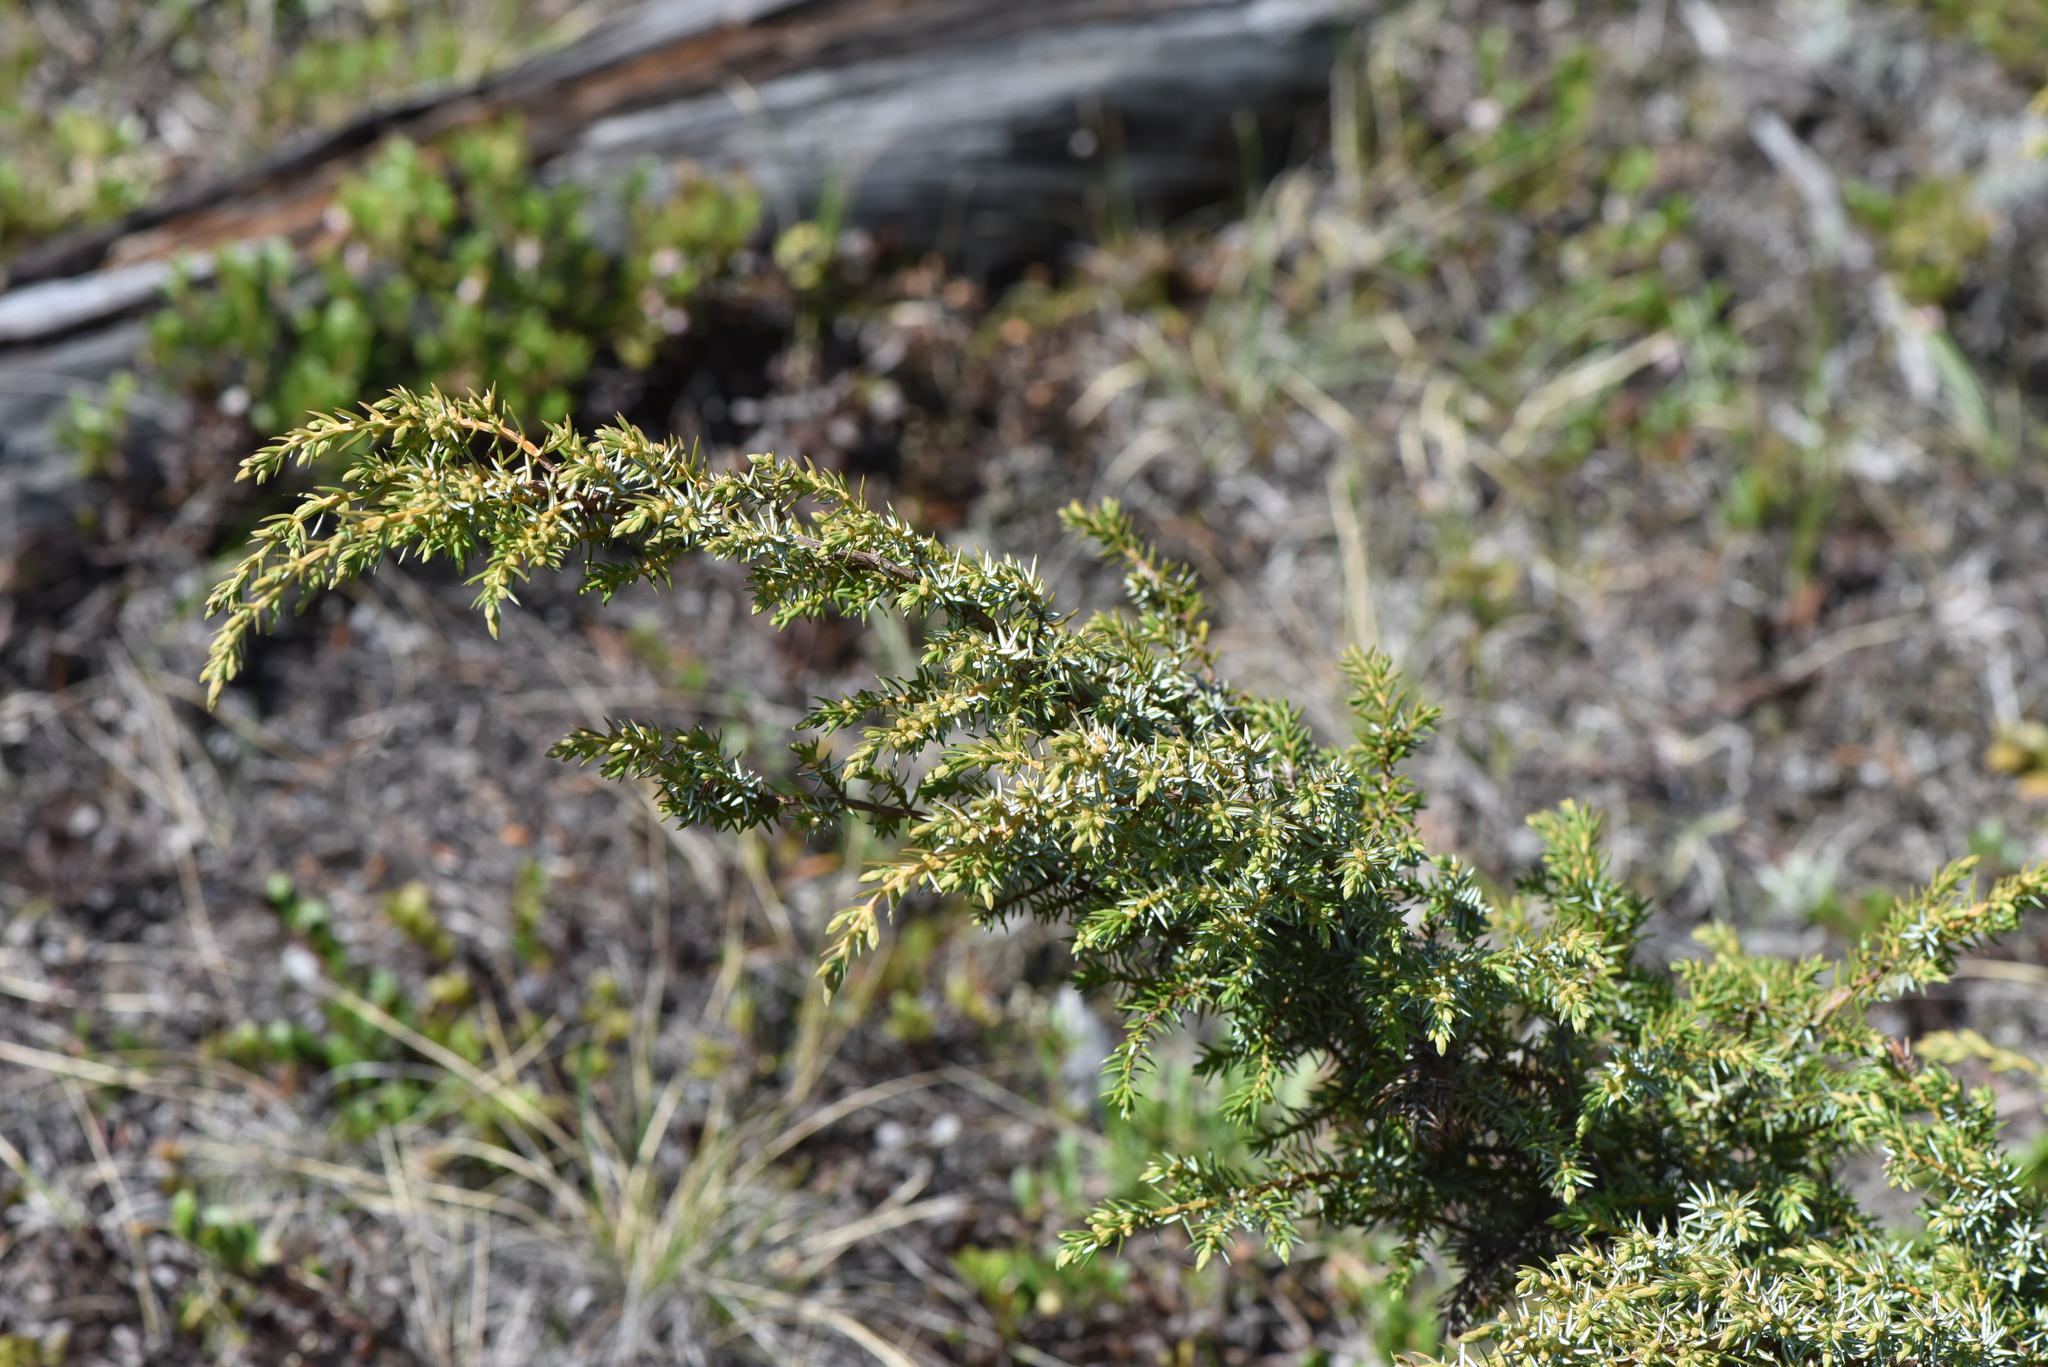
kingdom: Plantae
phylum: Tracheophyta
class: Pinopsida
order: Pinales
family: Cupressaceae
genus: Juniperus
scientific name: Juniperus communis
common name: Common juniper
